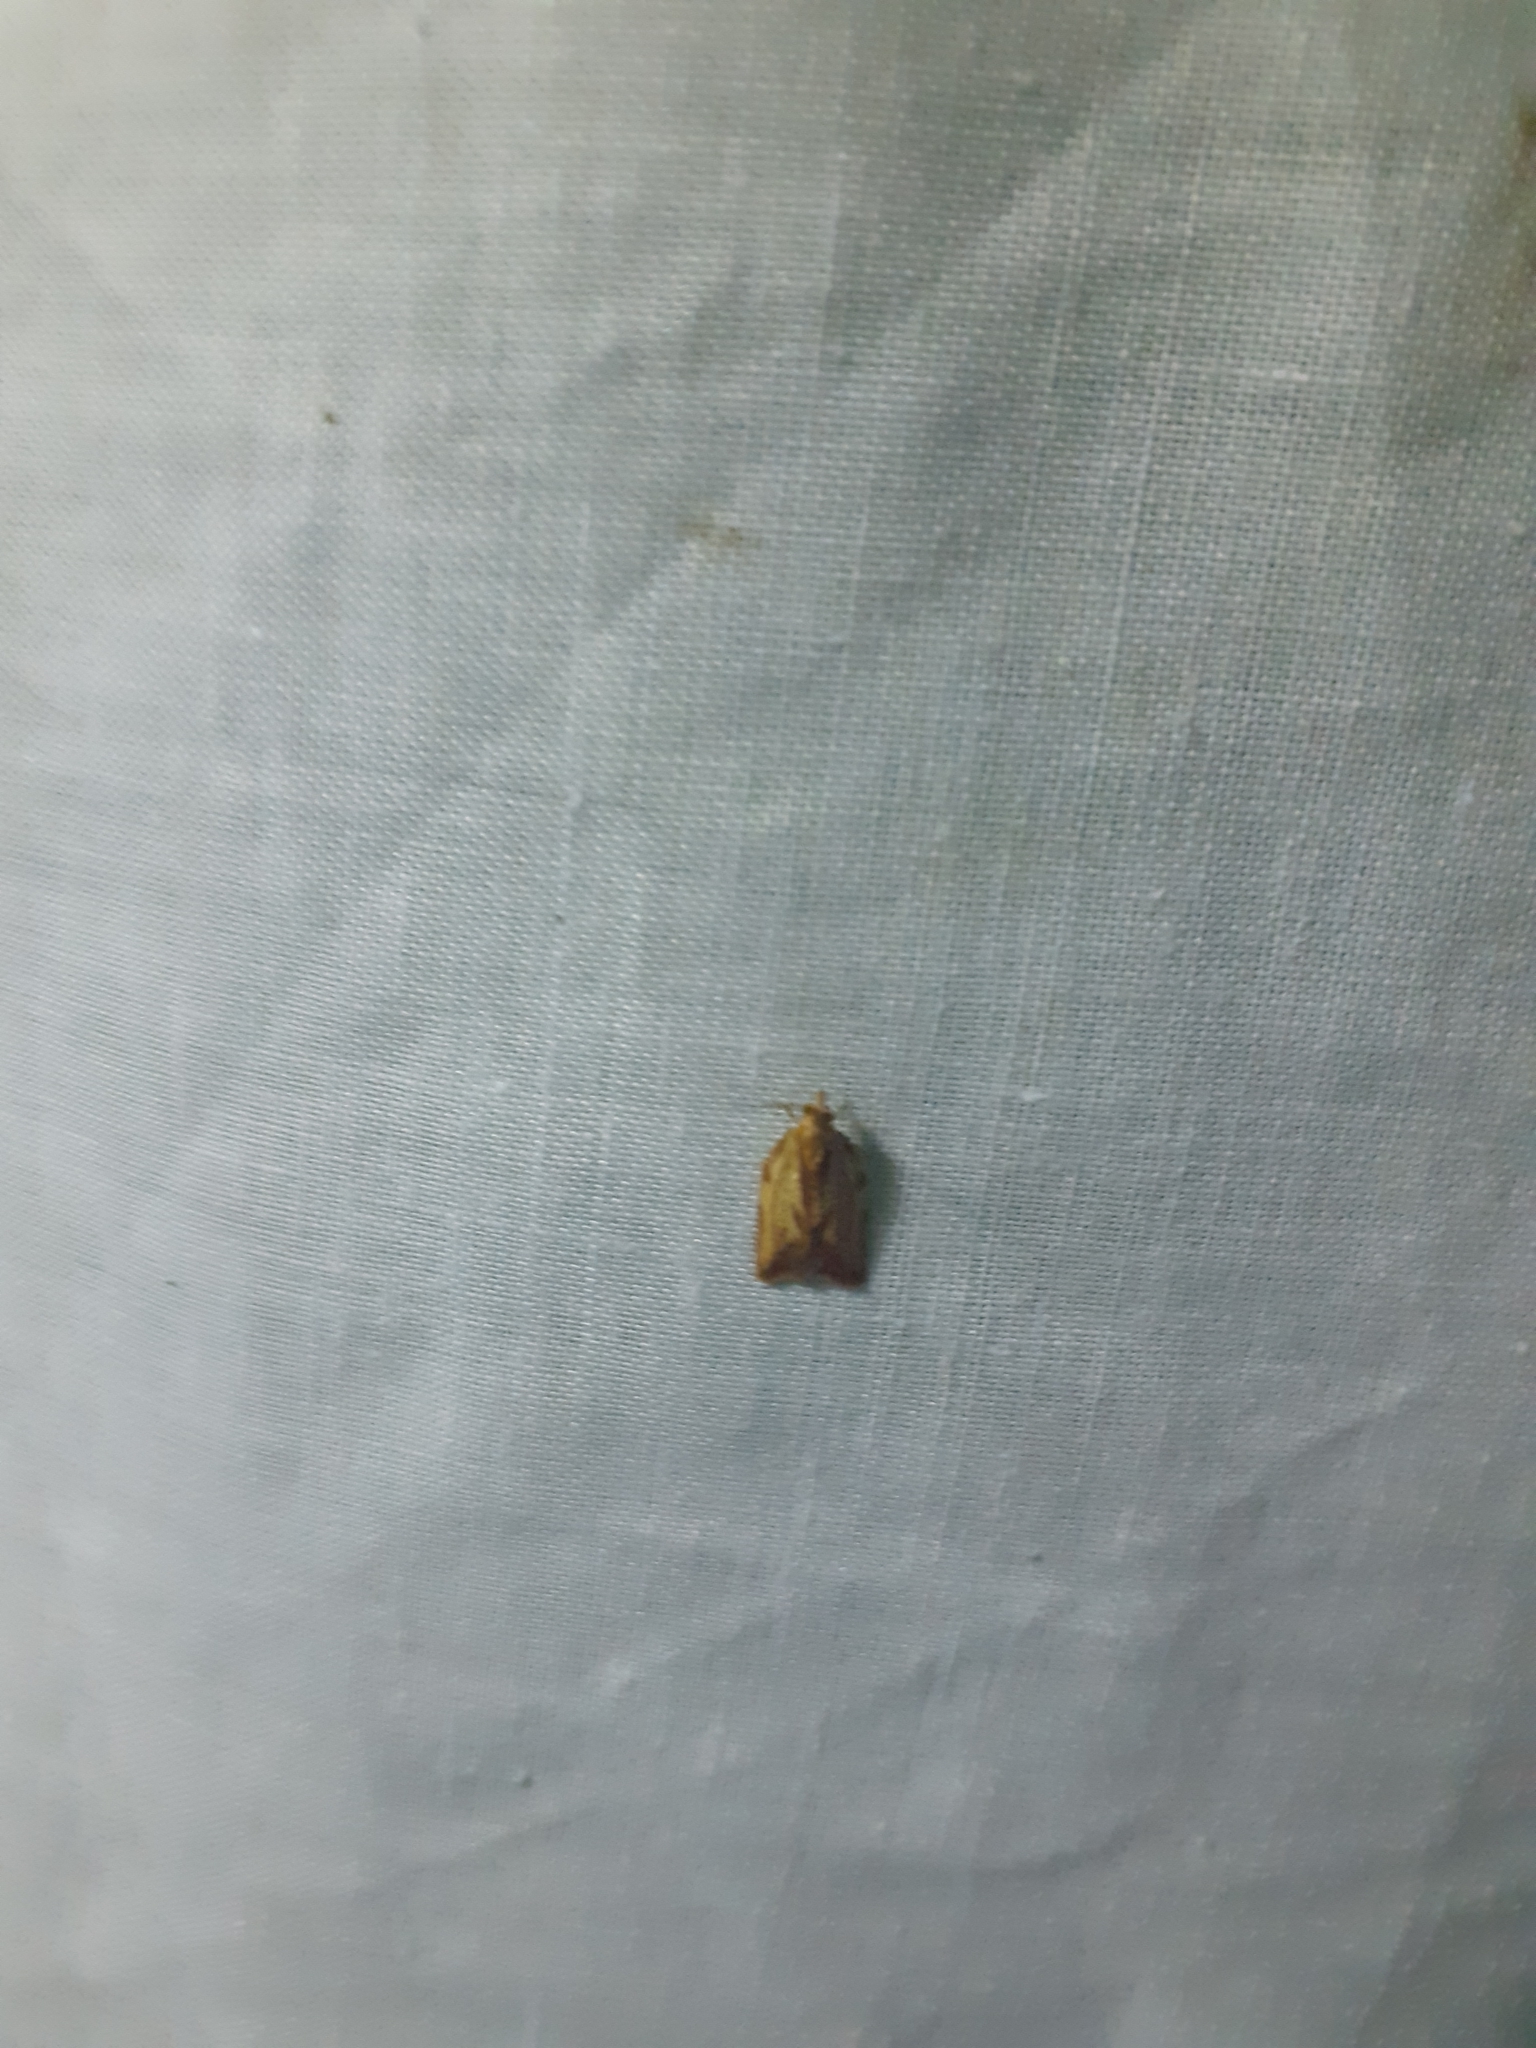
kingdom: Animalia
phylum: Arthropoda
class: Insecta
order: Lepidoptera
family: Tortricidae
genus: Epiphyas
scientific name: Epiphyas postvittana
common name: Light brown apple moth
